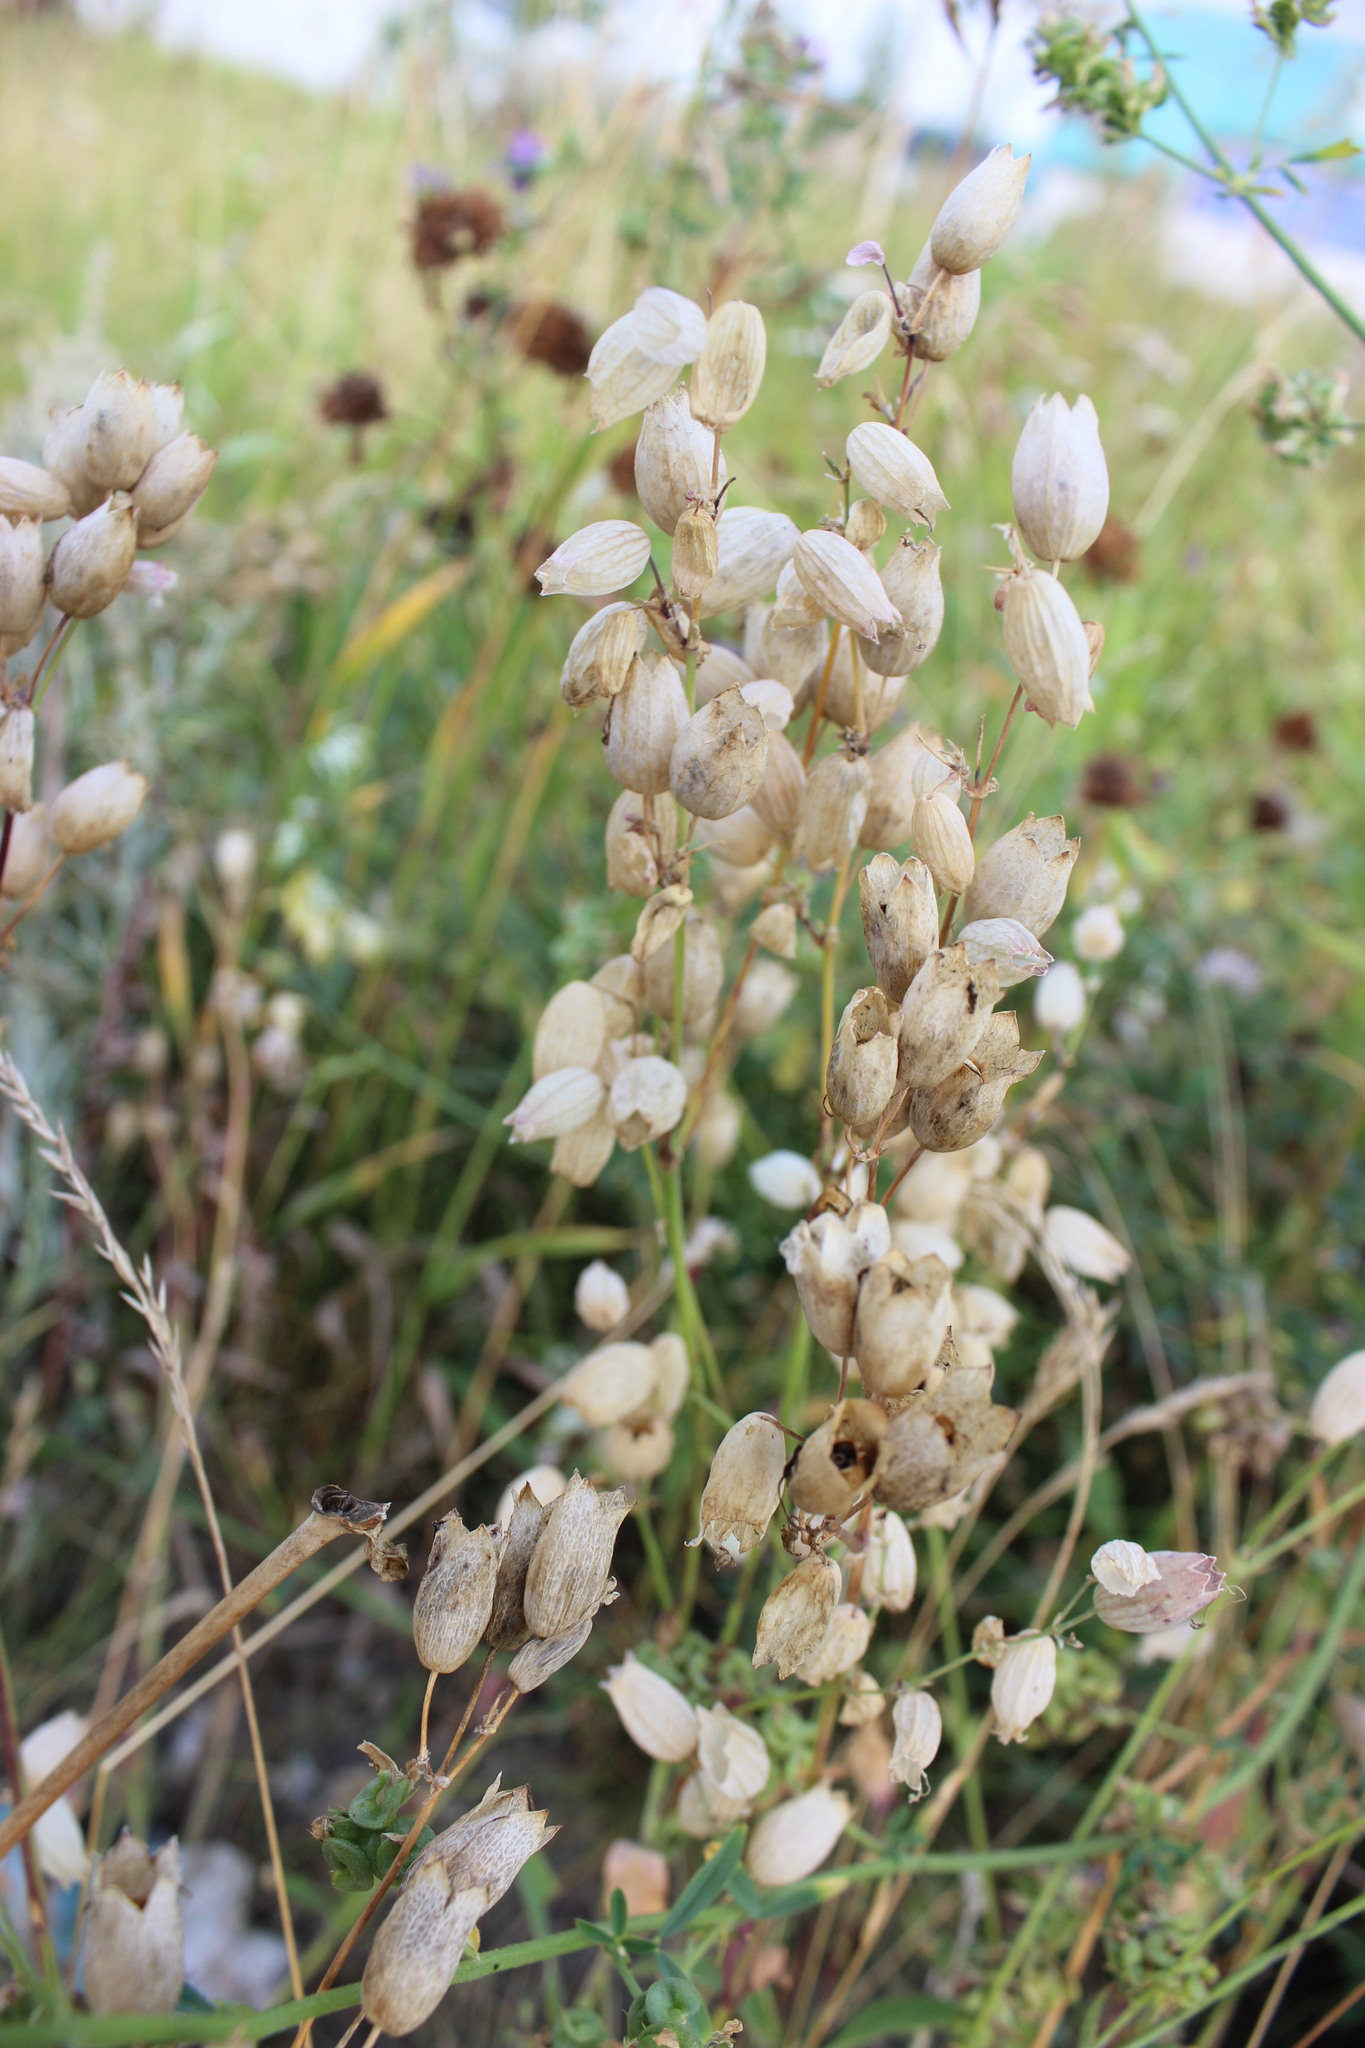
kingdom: Plantae
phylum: Tracheophyta
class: Magnoliopsida
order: Caryophyllales
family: Caryophyllaceae
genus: Silene
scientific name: Silene vulgaris
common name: Bladder campion
